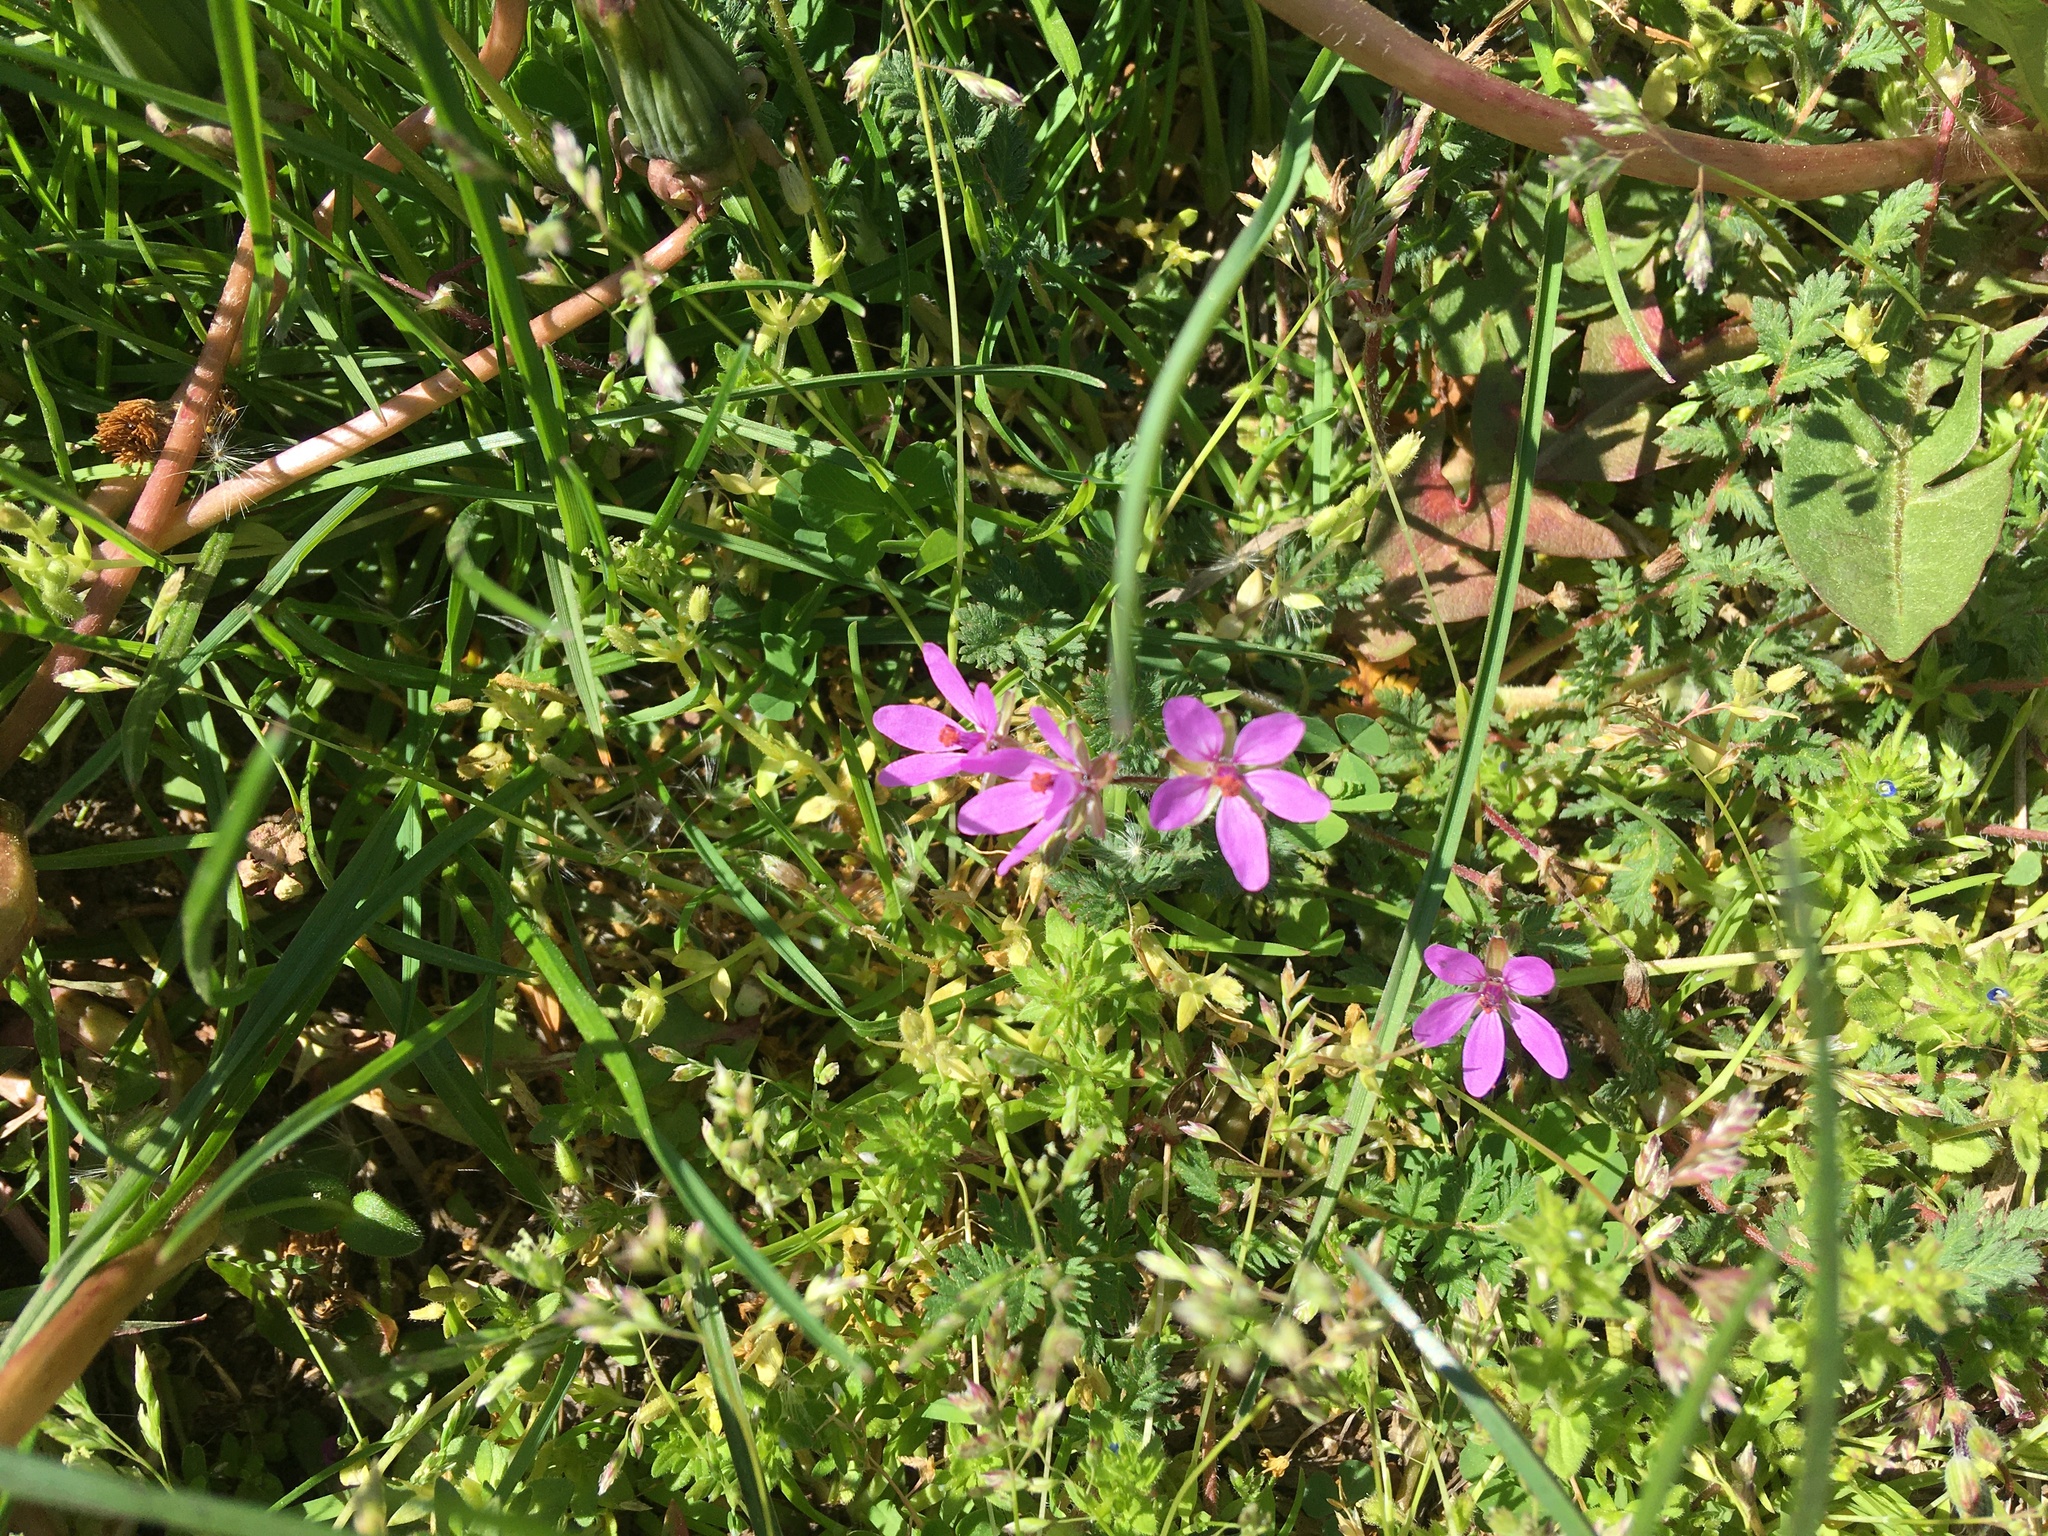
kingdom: Plantae
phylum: Tracheophyta
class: Magnoliopsida
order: Geraniales
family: Geraniaceae
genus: Erodium
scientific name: Erodium cicutarium
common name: Common stork's-bill
